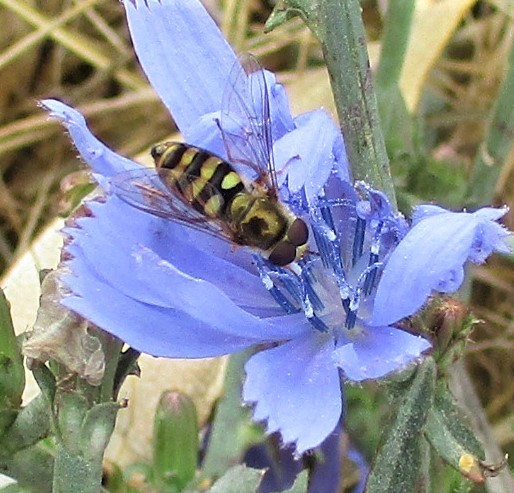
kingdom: Animalia
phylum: Arthropoda
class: Insecta
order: Diptera
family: Syrphidae
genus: Eupeodes
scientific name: Eupeodes fumipennis
